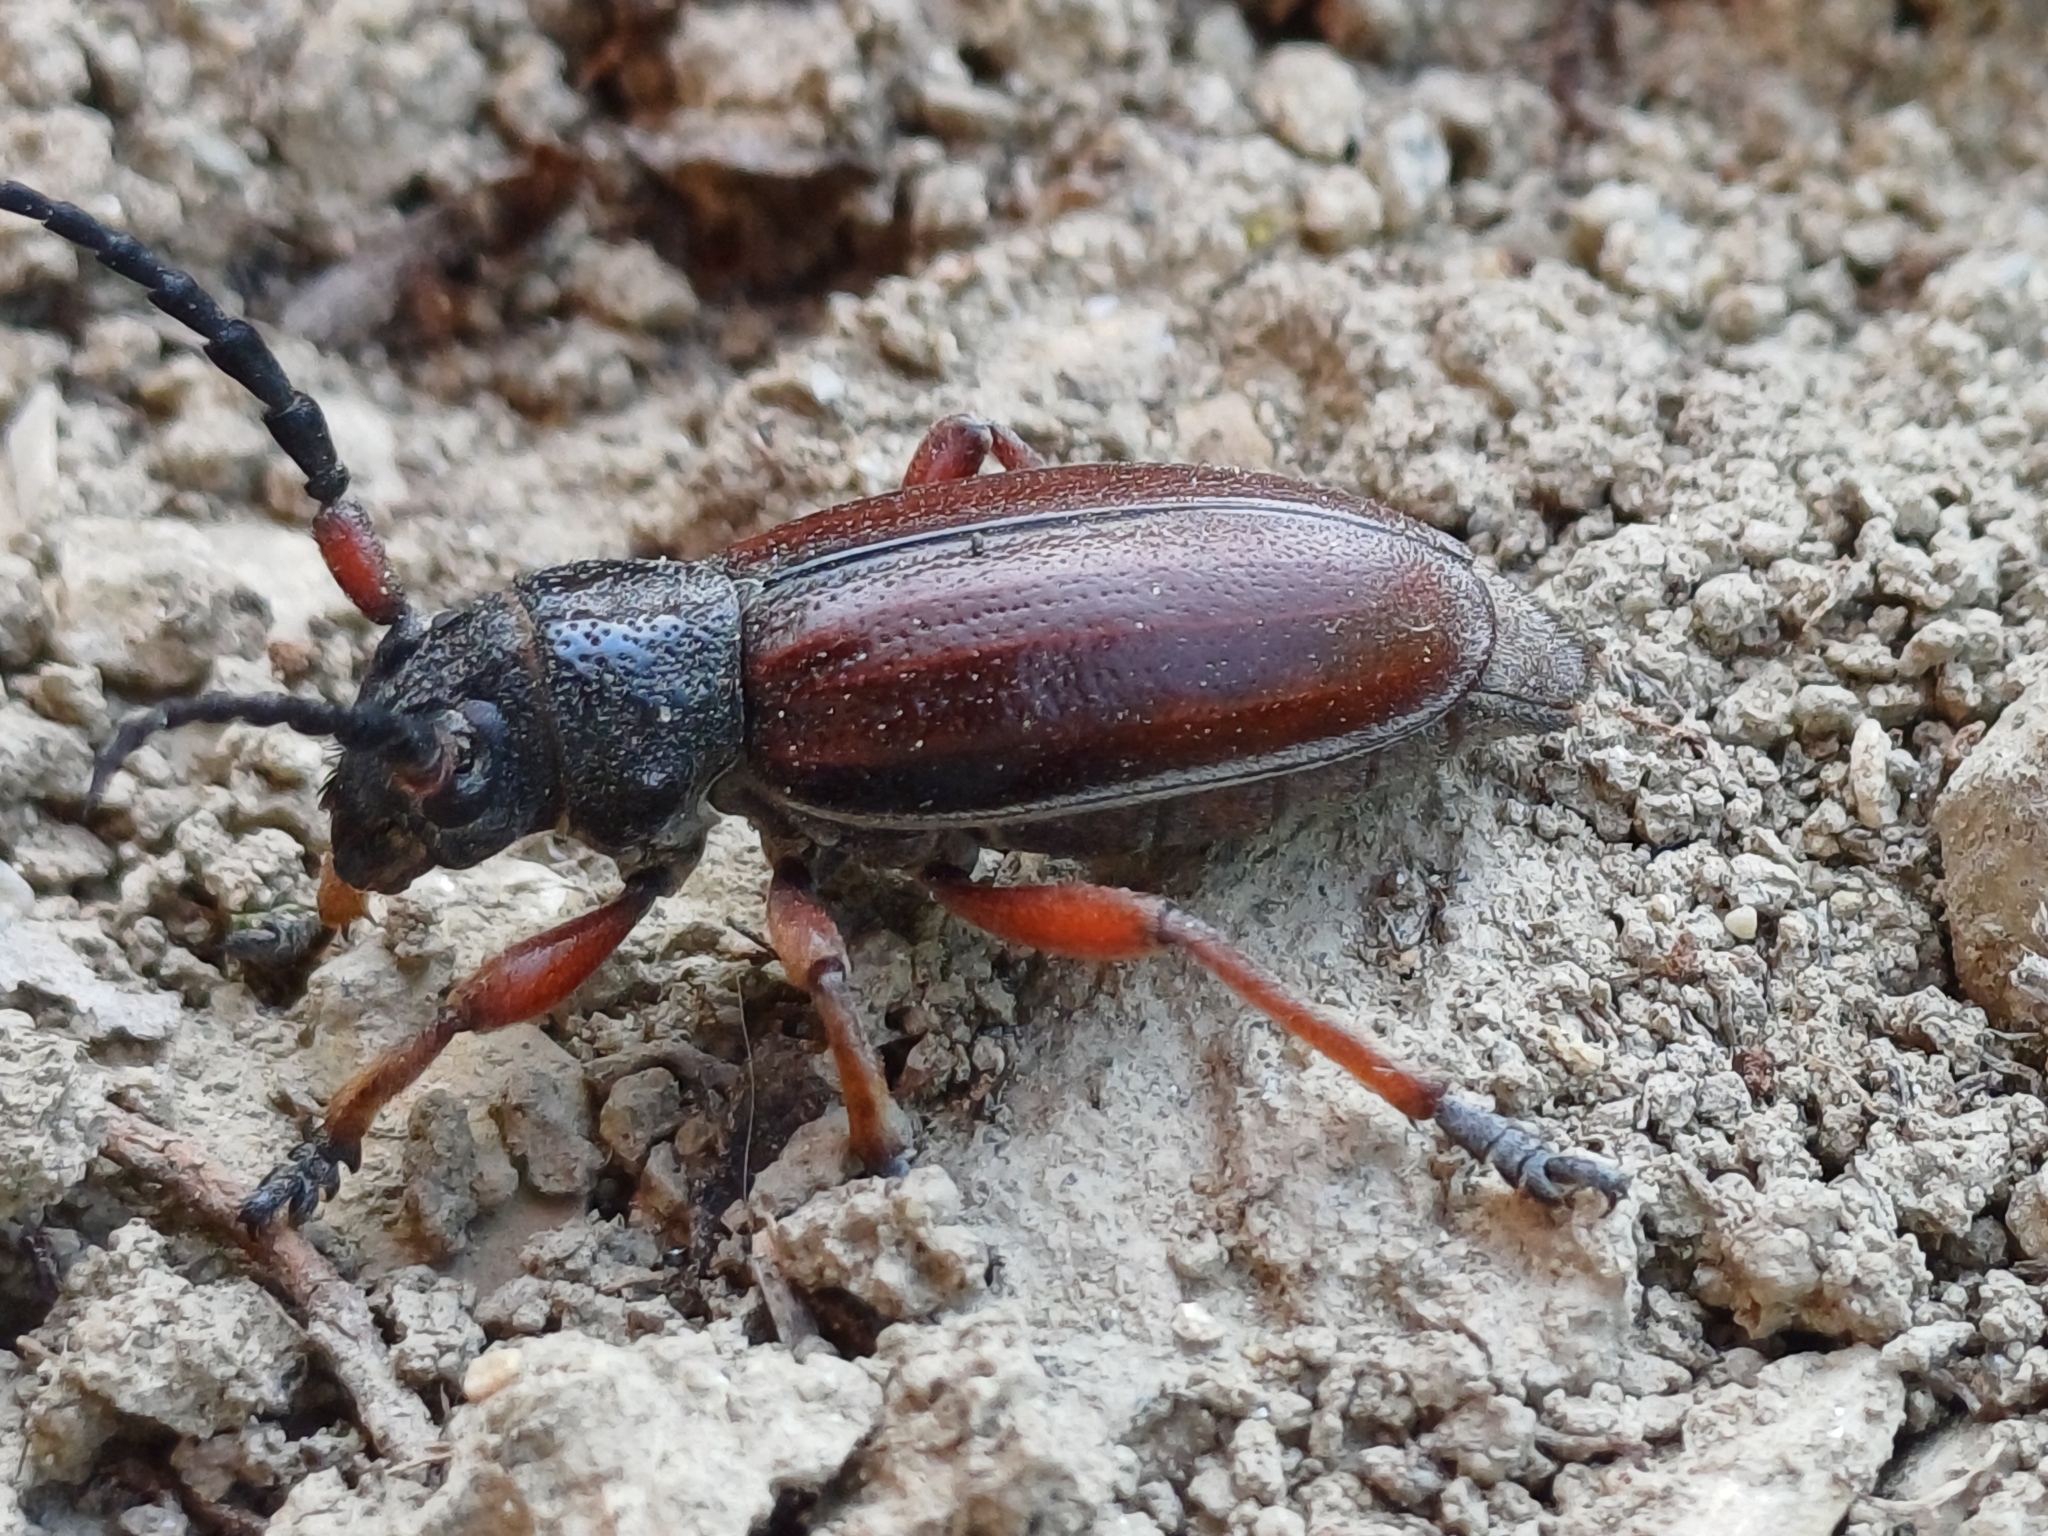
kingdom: Animalia
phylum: Arthropoda
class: Insecta
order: Coleoptera
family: Cerambycidae
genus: Dorcadion
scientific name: Dorcadion fulvum
